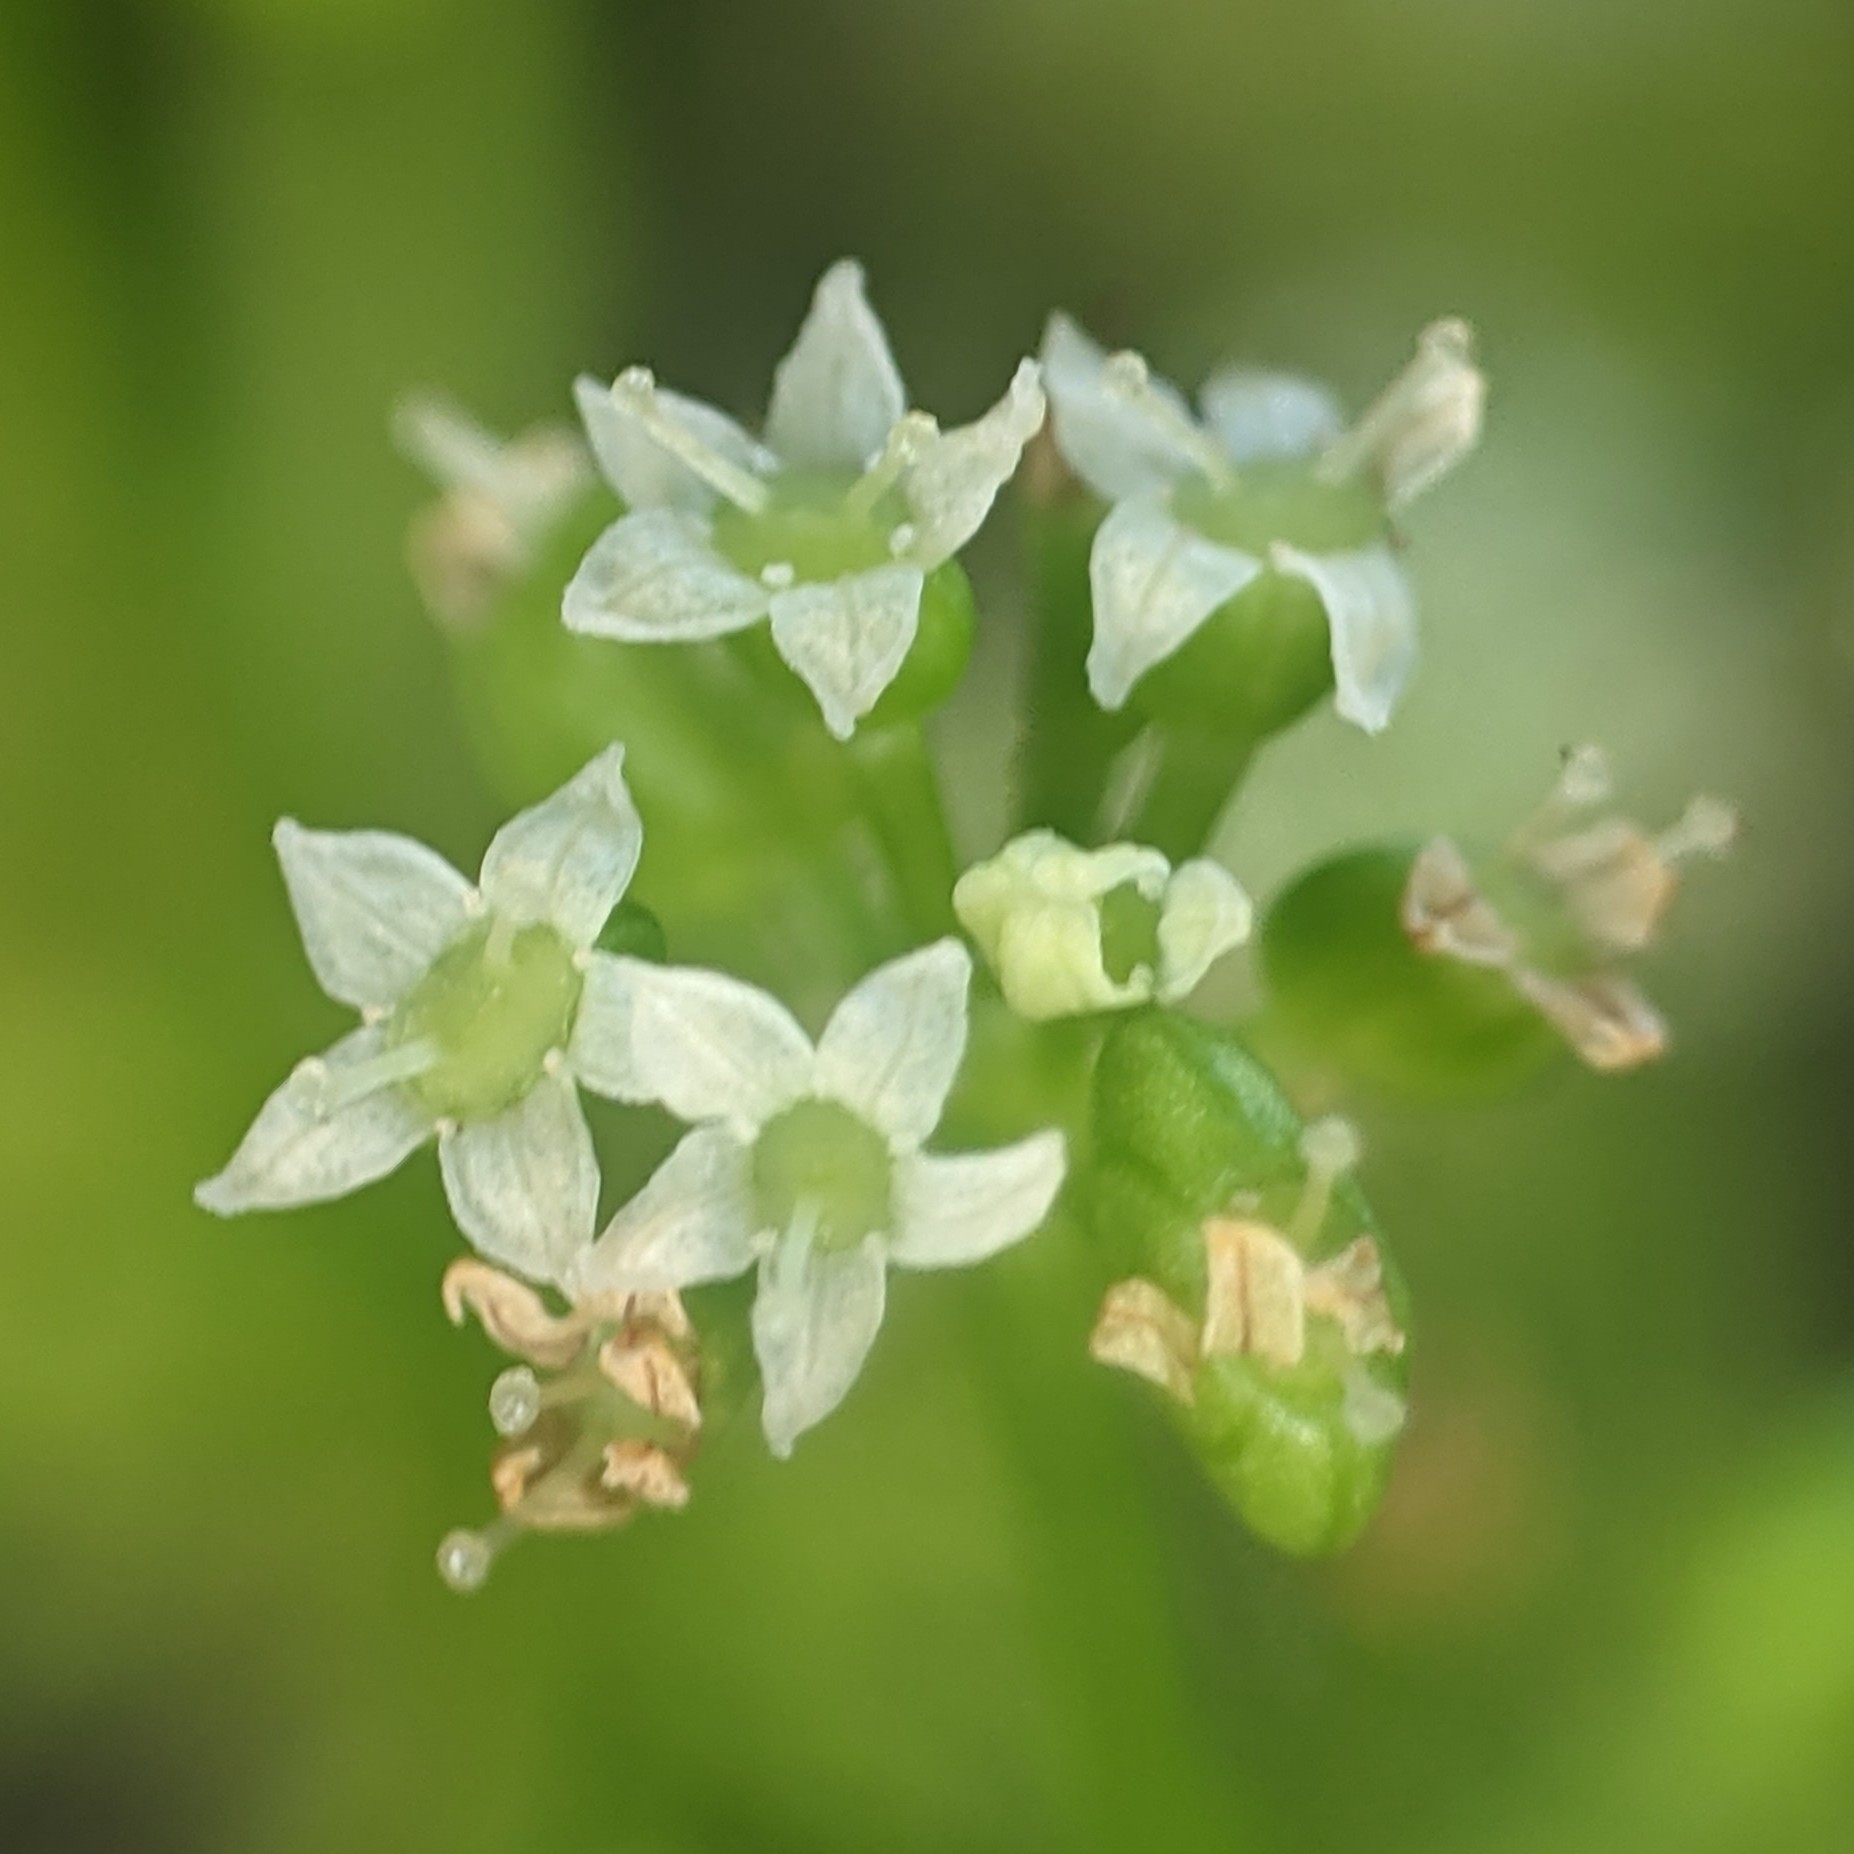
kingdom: Plantae
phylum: Tracheophyta
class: Magnoliopsida
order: Apiales
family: Araliaceae
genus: Hydrocotyle
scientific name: Hydrocotyle bonariensis
